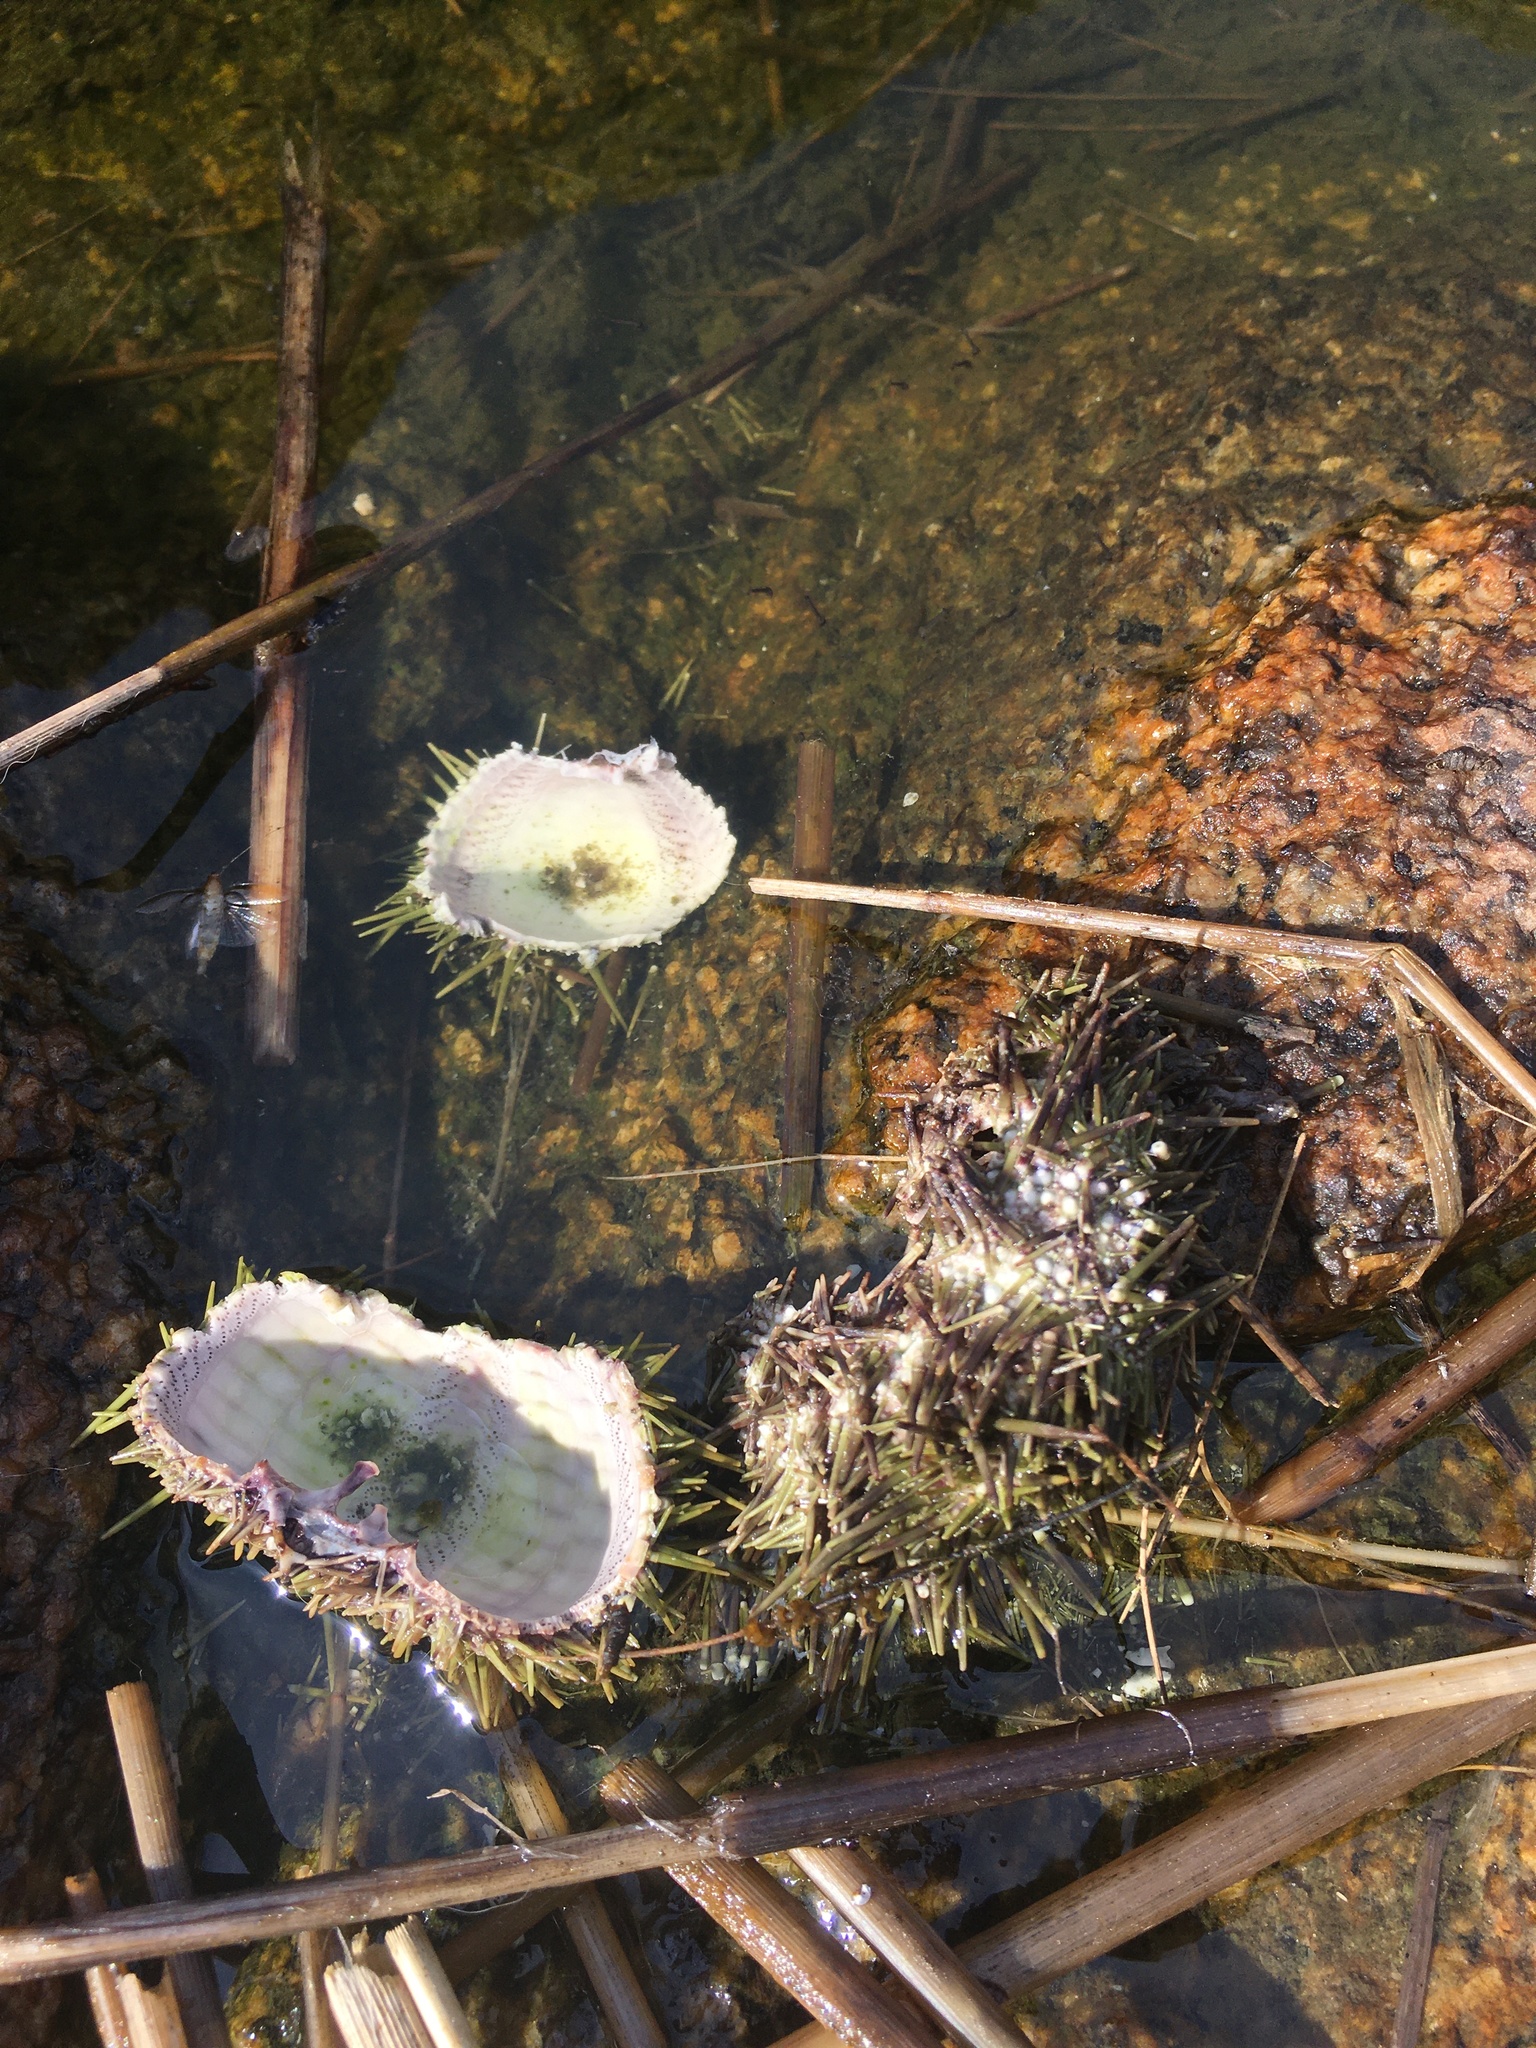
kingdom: Animalia
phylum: Echinodermata
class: Echinoidea
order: Camarodonta
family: Strongylocentrotidae
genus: Strongylocentrotus
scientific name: Strongylocentrotus droebachiensis
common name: Northern sea urchin
